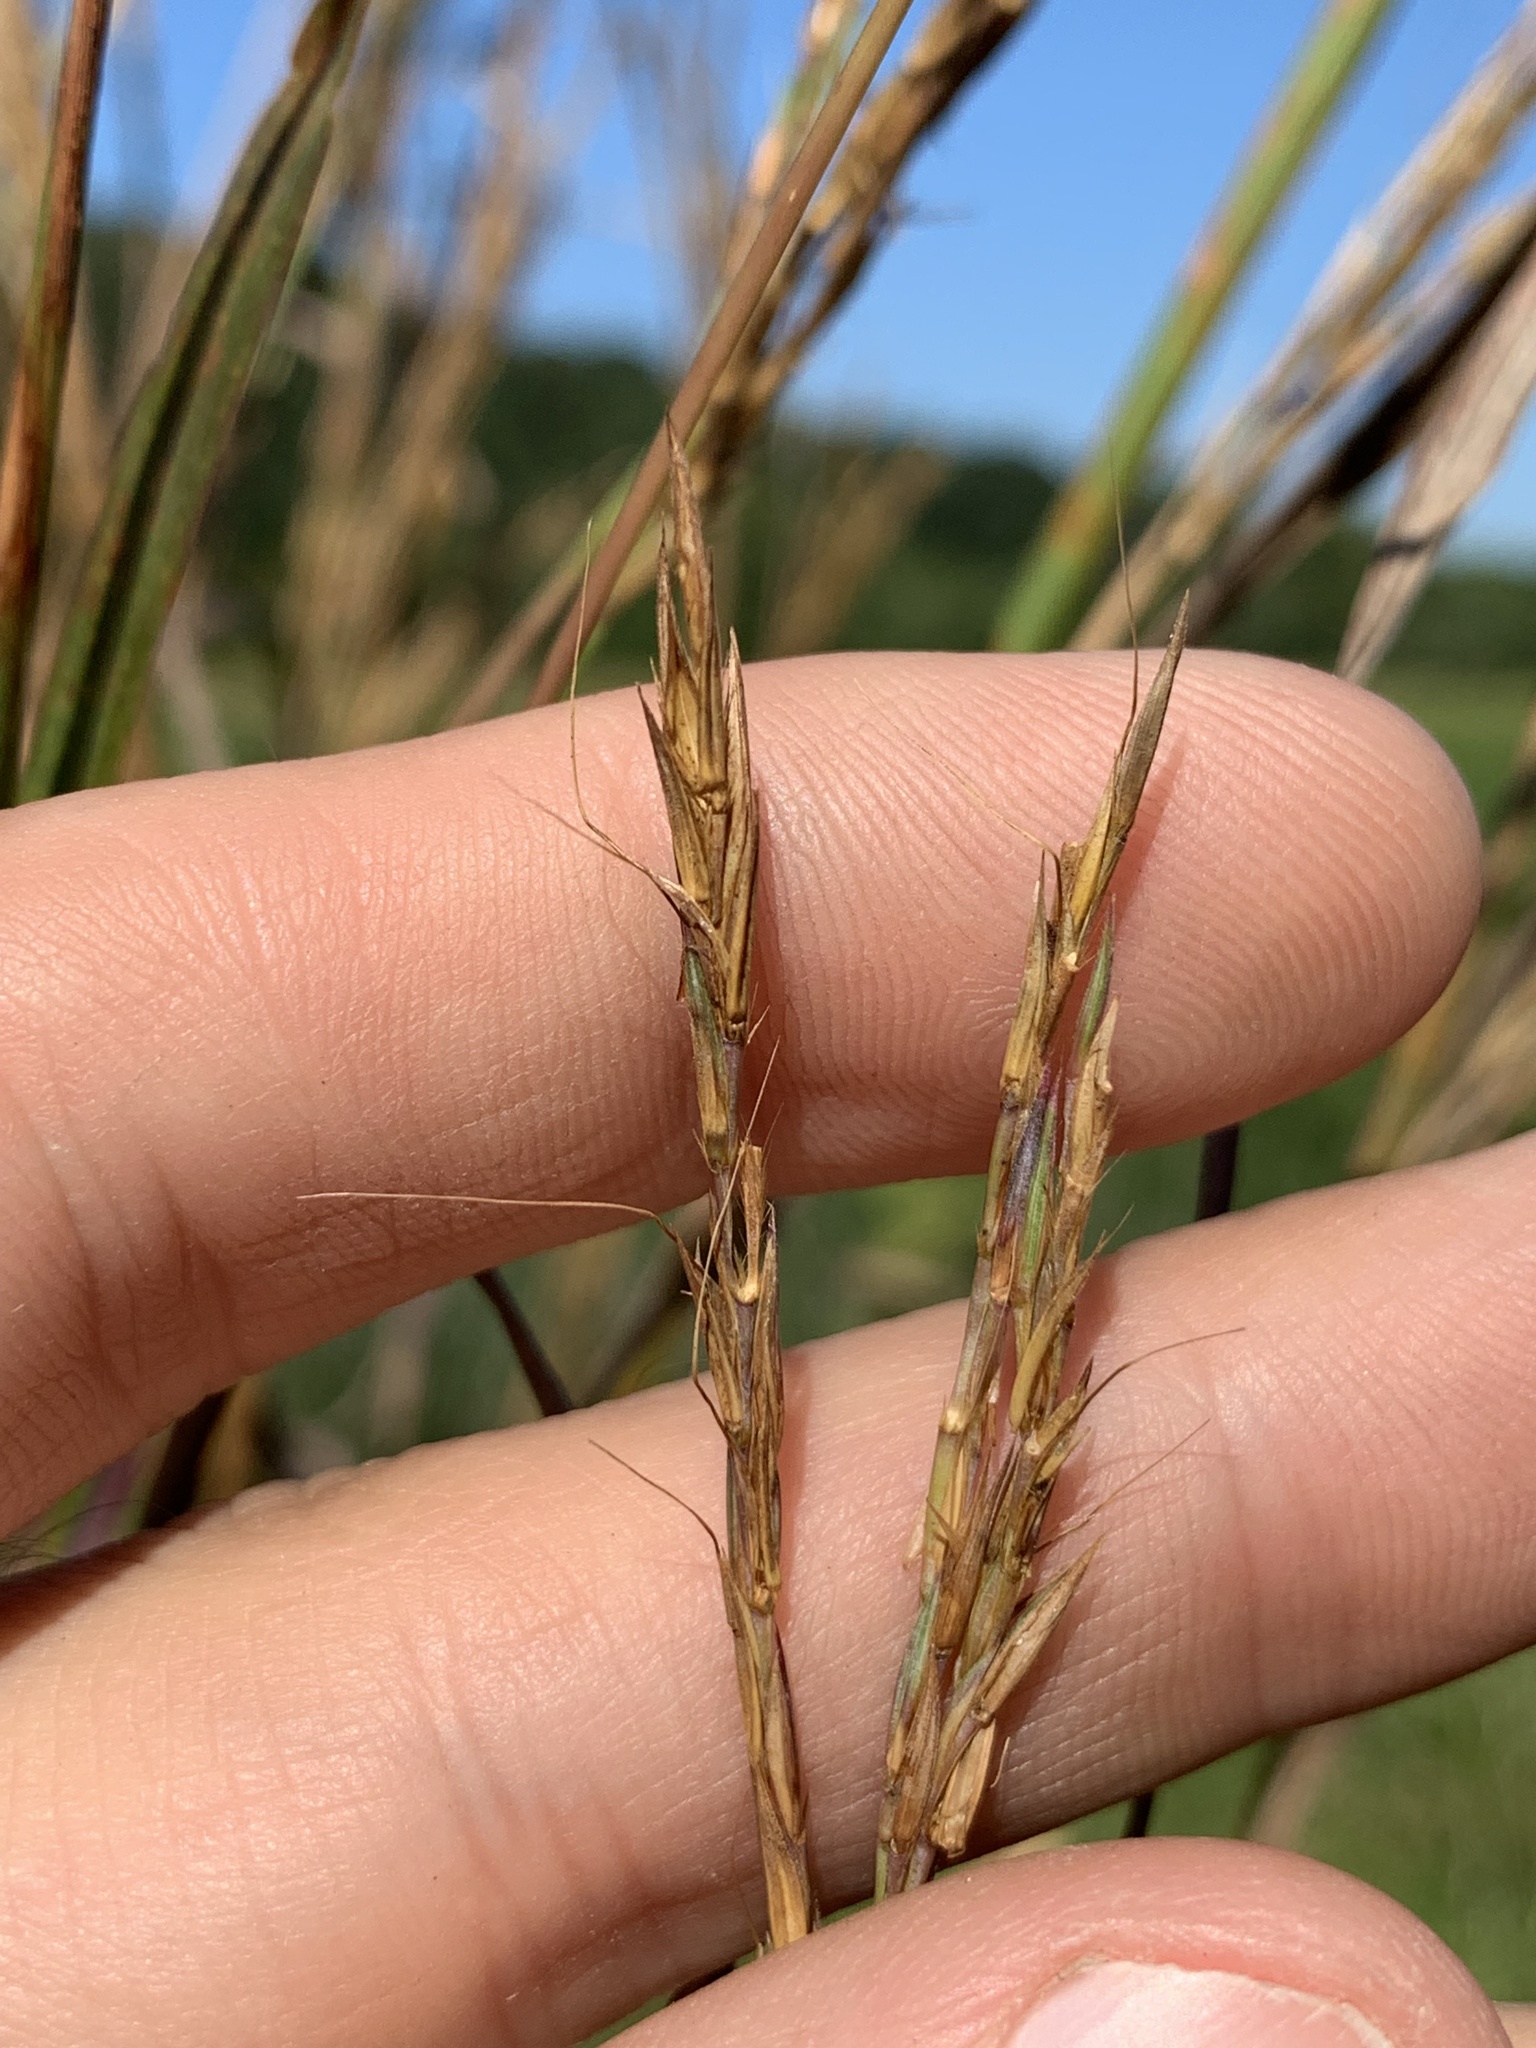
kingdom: Plantae
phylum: Tracheophyta
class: Liliopsida
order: Poales
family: Poaceae
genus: Andropogon
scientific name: Andropogon gerardi
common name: Big bluestem
